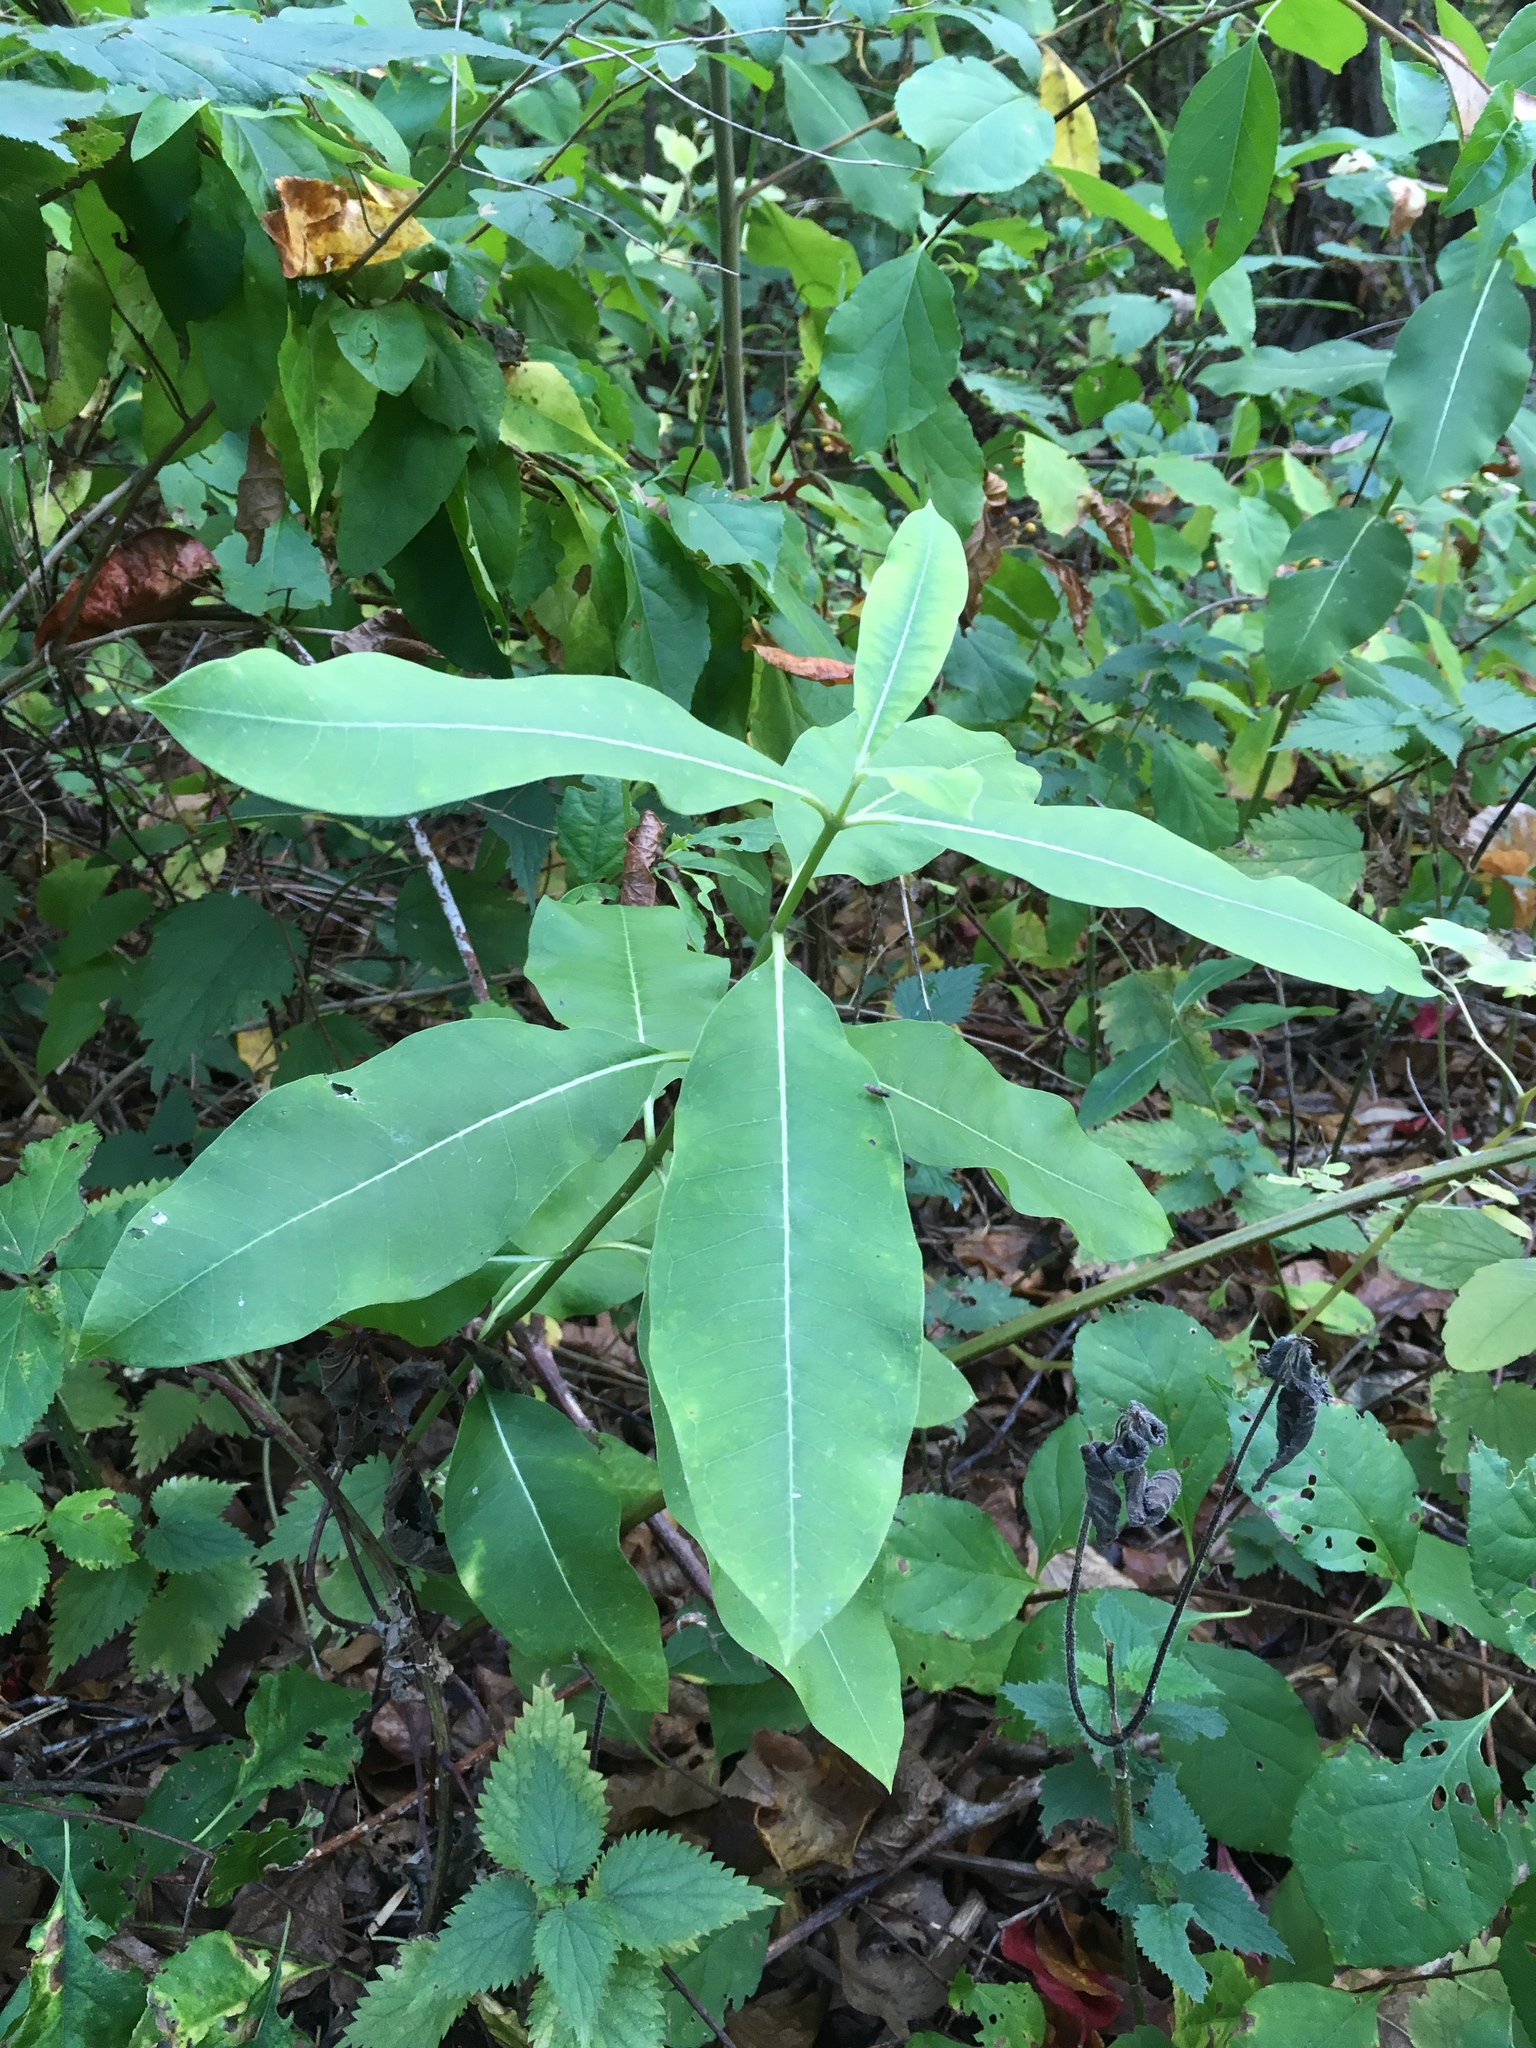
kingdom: Plantae
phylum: Tracheophyta
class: Magnoliopsida
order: Gentianales
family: Apocynaceae
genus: Asclepias
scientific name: Asclepias syriaca
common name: Common milkweed
